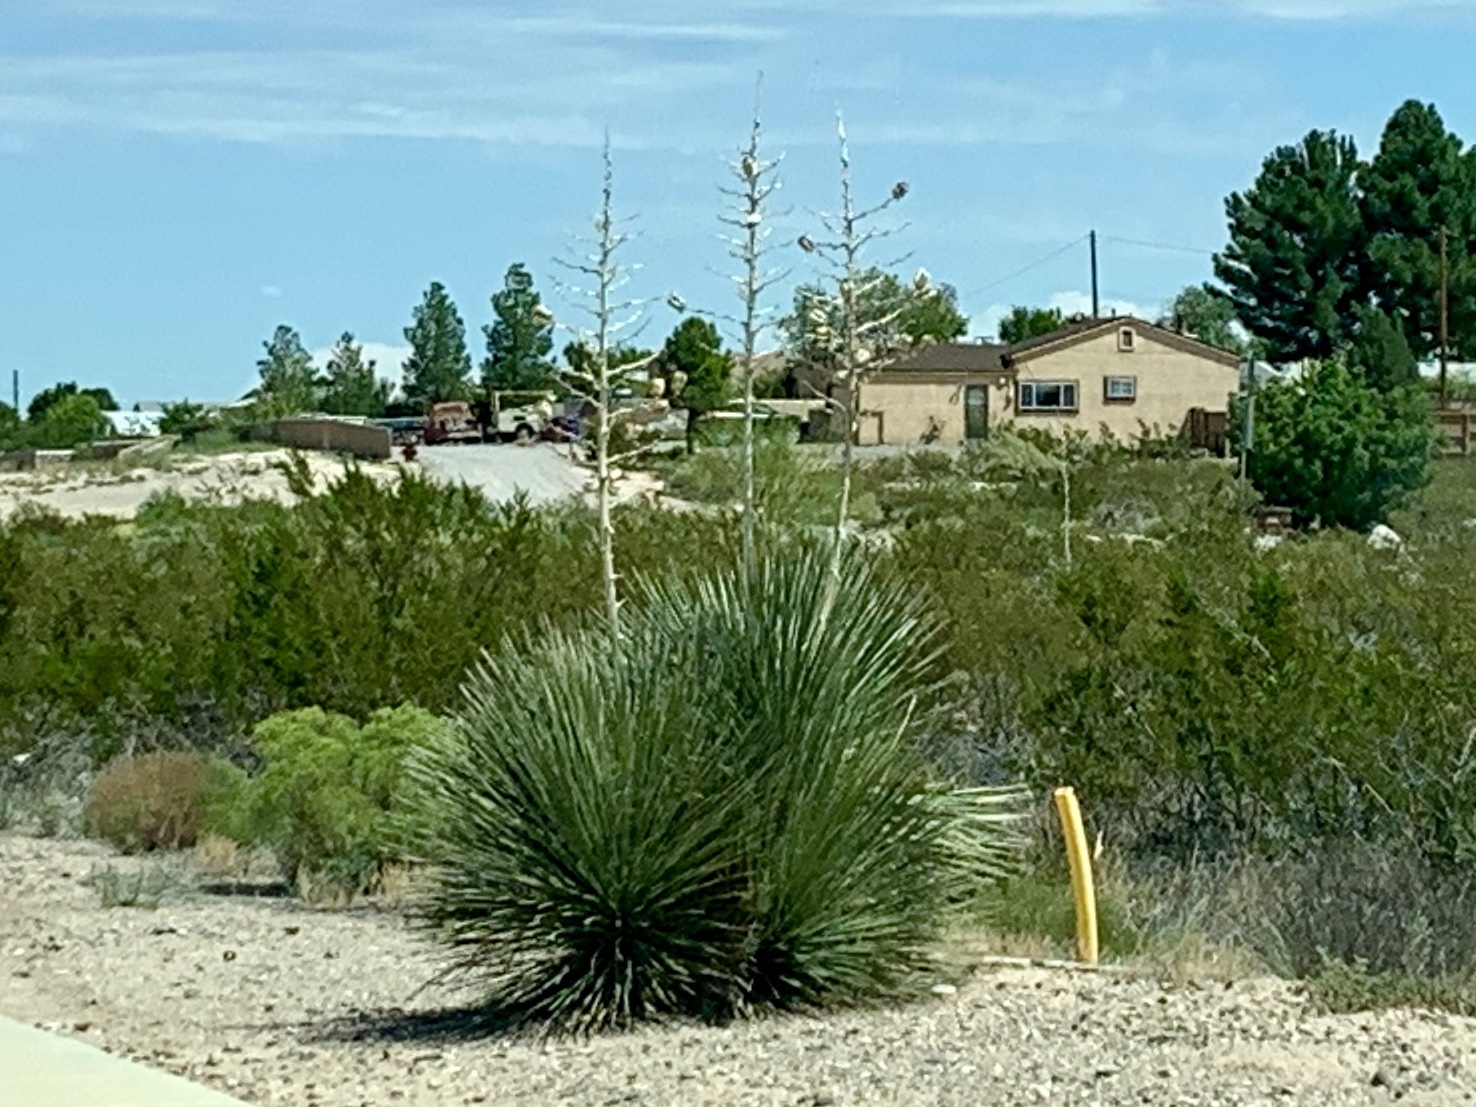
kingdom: Plantae
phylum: Tracheophyta
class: Liliopsida
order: Asparagales
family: Asparagaceae
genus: Yucca
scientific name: Yucca elata
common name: Palmella
